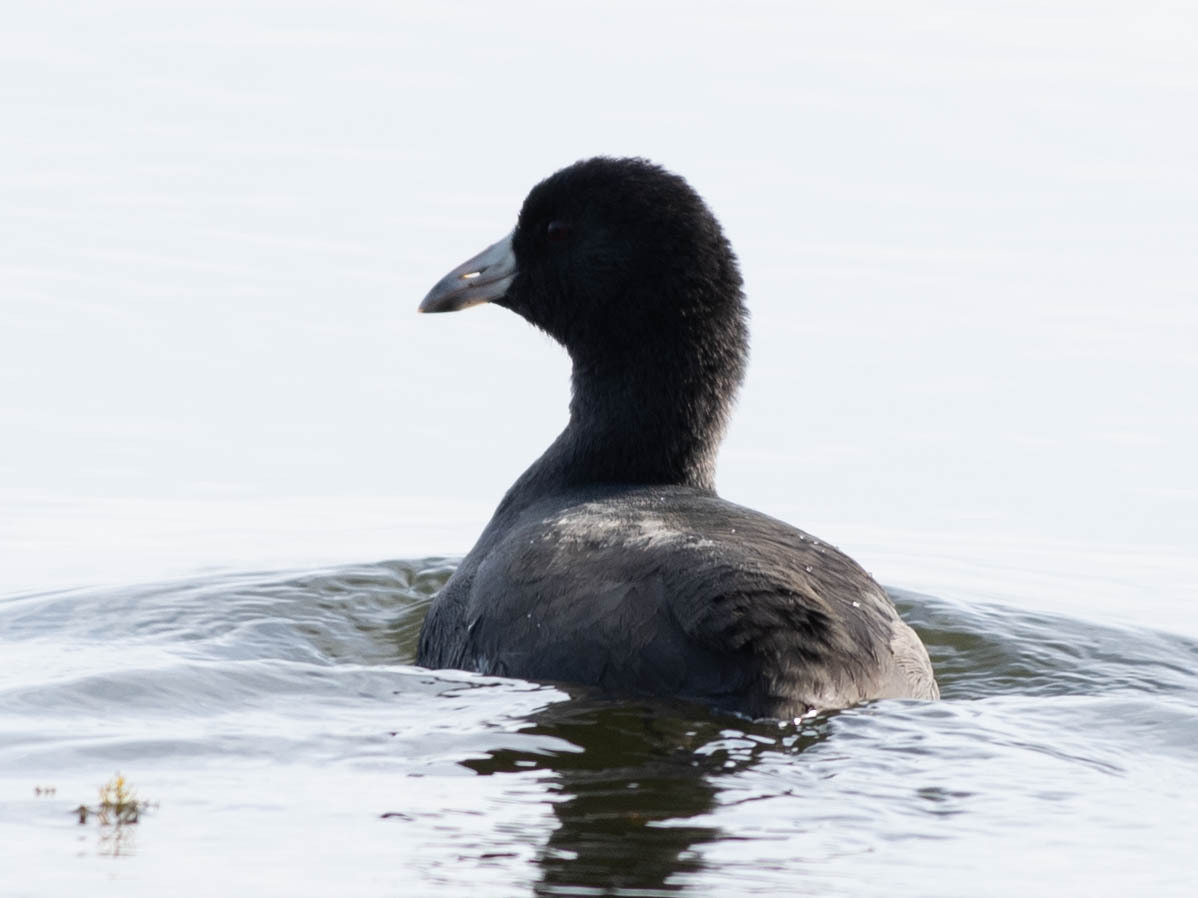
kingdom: Animalia
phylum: Chordata
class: Aves
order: Gruiformes
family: Rallidae
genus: Fulica
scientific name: Fulica americana
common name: American coot
